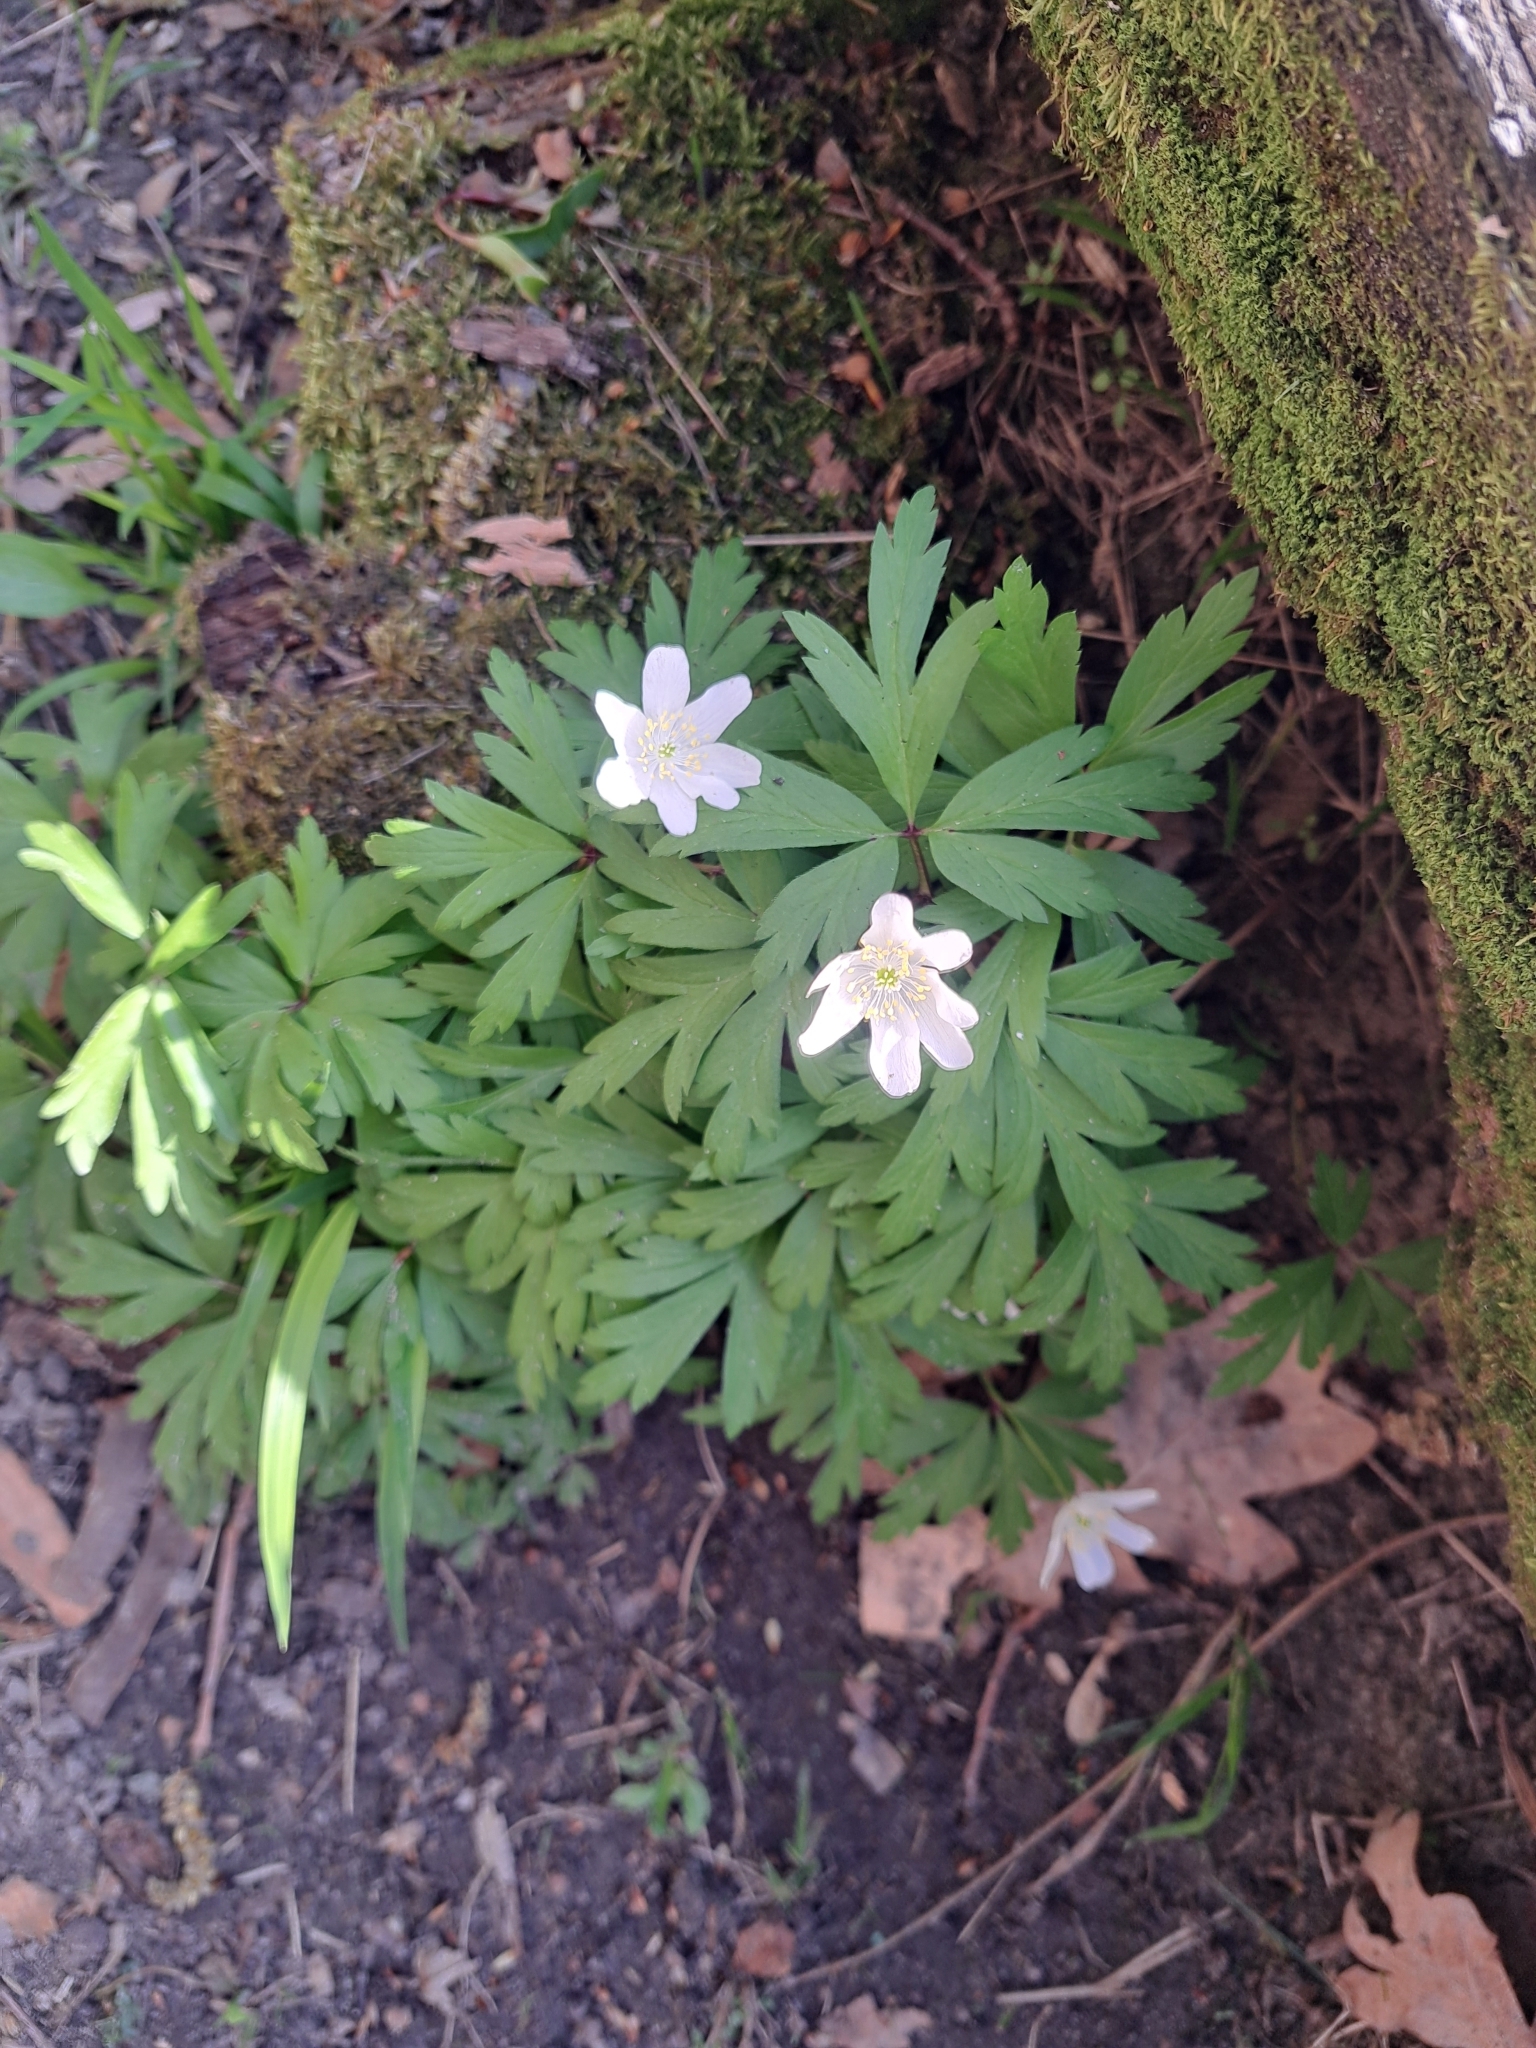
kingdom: Plantae
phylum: Tracheophyta
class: Magnoliopsida
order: Ranunculales
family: Ranunculaceae
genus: Anemone
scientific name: Anemone nemorosa
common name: Wood anemone
